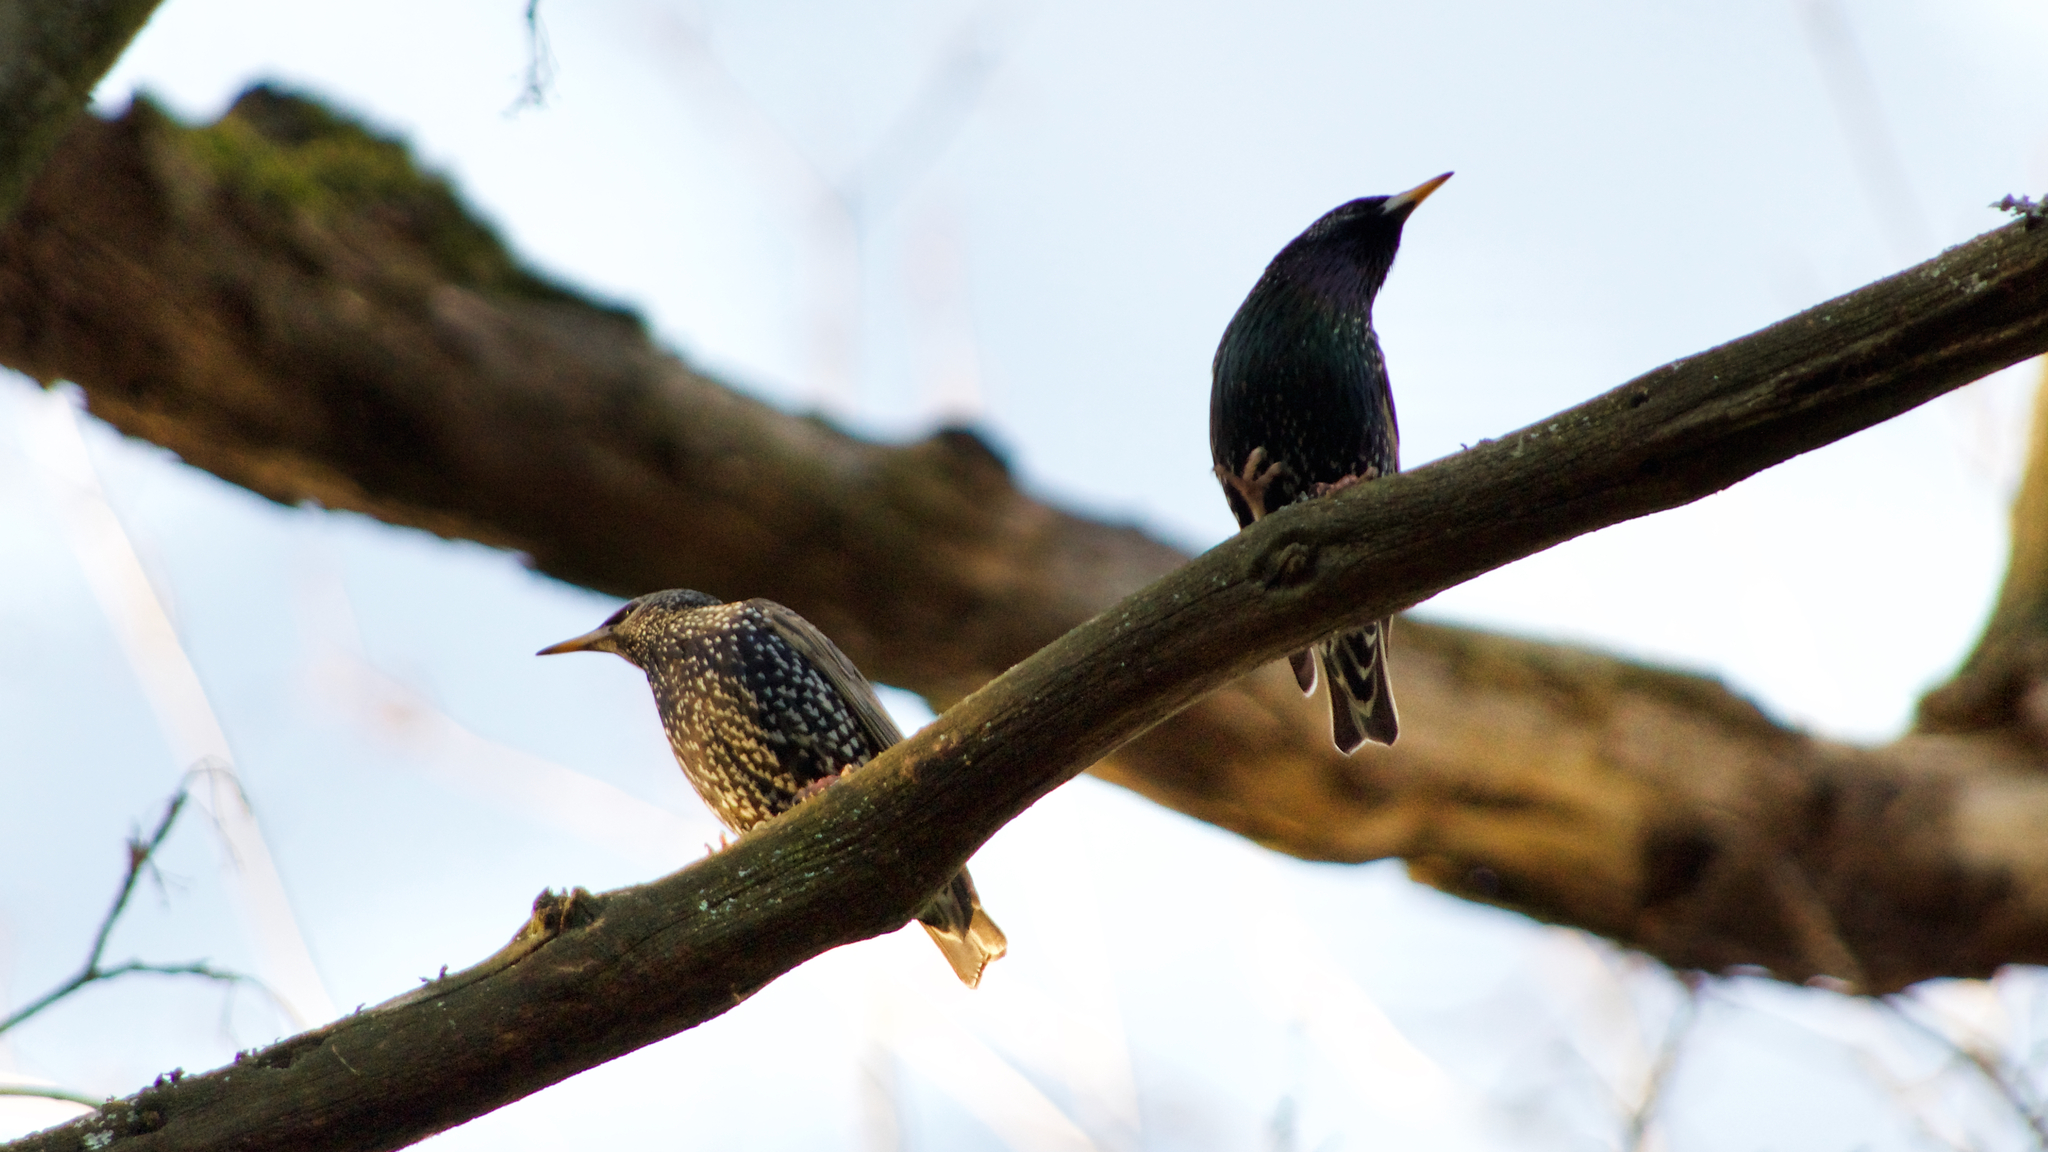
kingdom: Animalia
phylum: Chordata
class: Aves
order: Passeriformes
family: Sturnidae
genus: Sturnus
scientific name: Sturnus vulgaris
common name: Common starling
